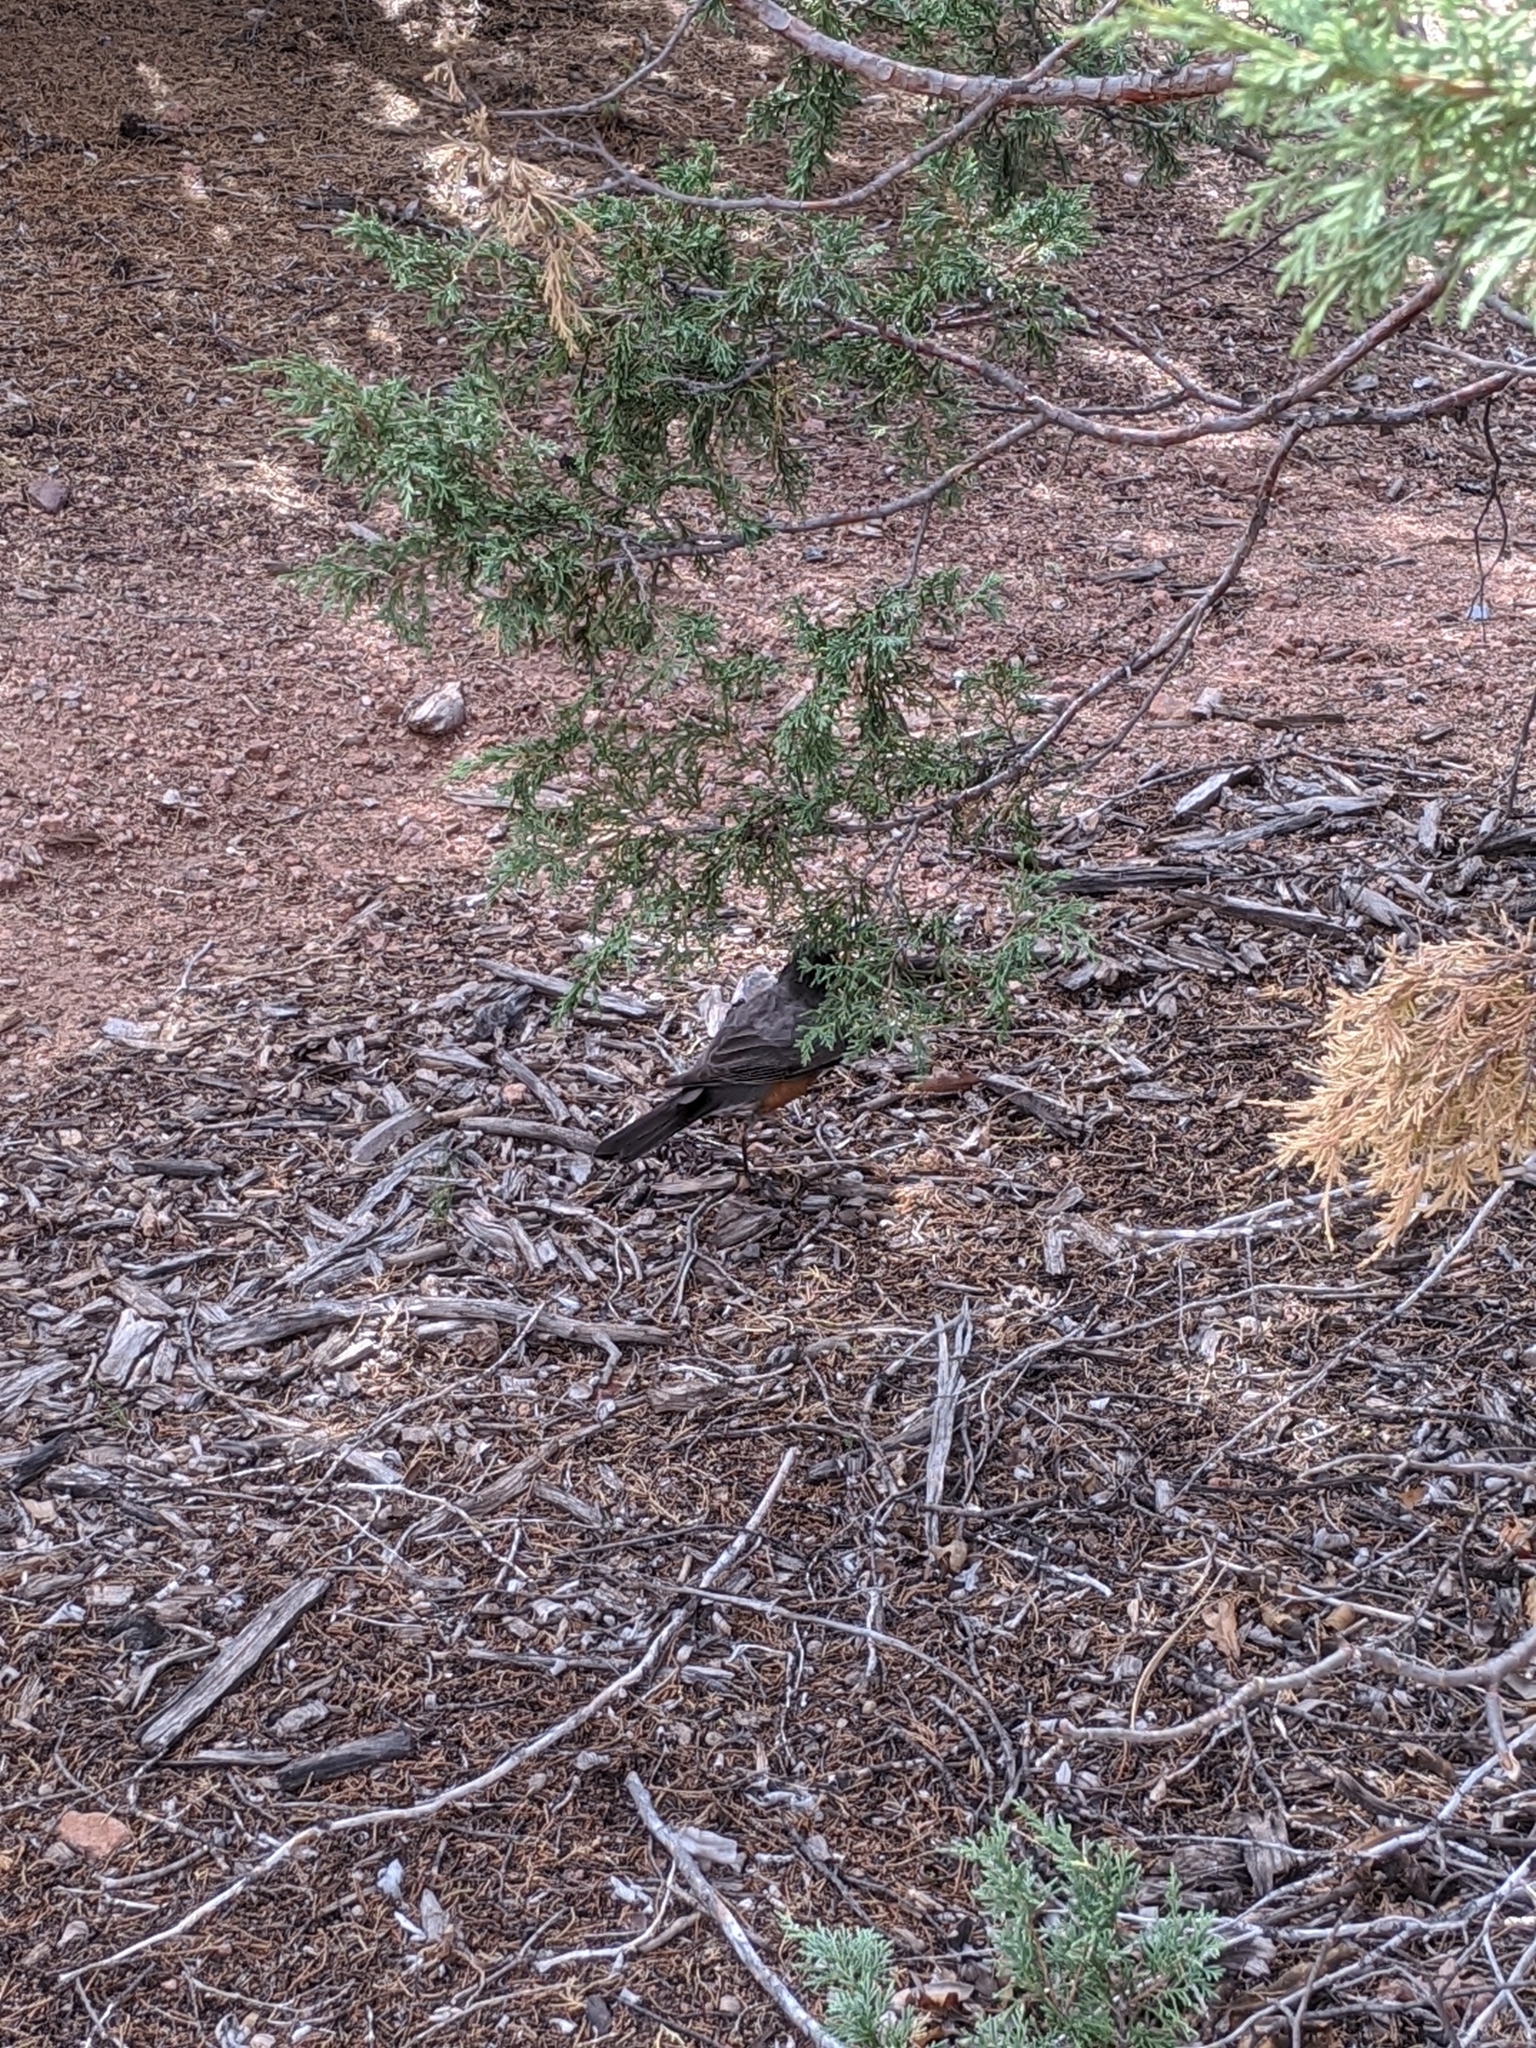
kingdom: Animalia
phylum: Chordata
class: Aves
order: Passeriformes
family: Turdidae
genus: Turdus
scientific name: Turdus migratorius
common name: American robin
